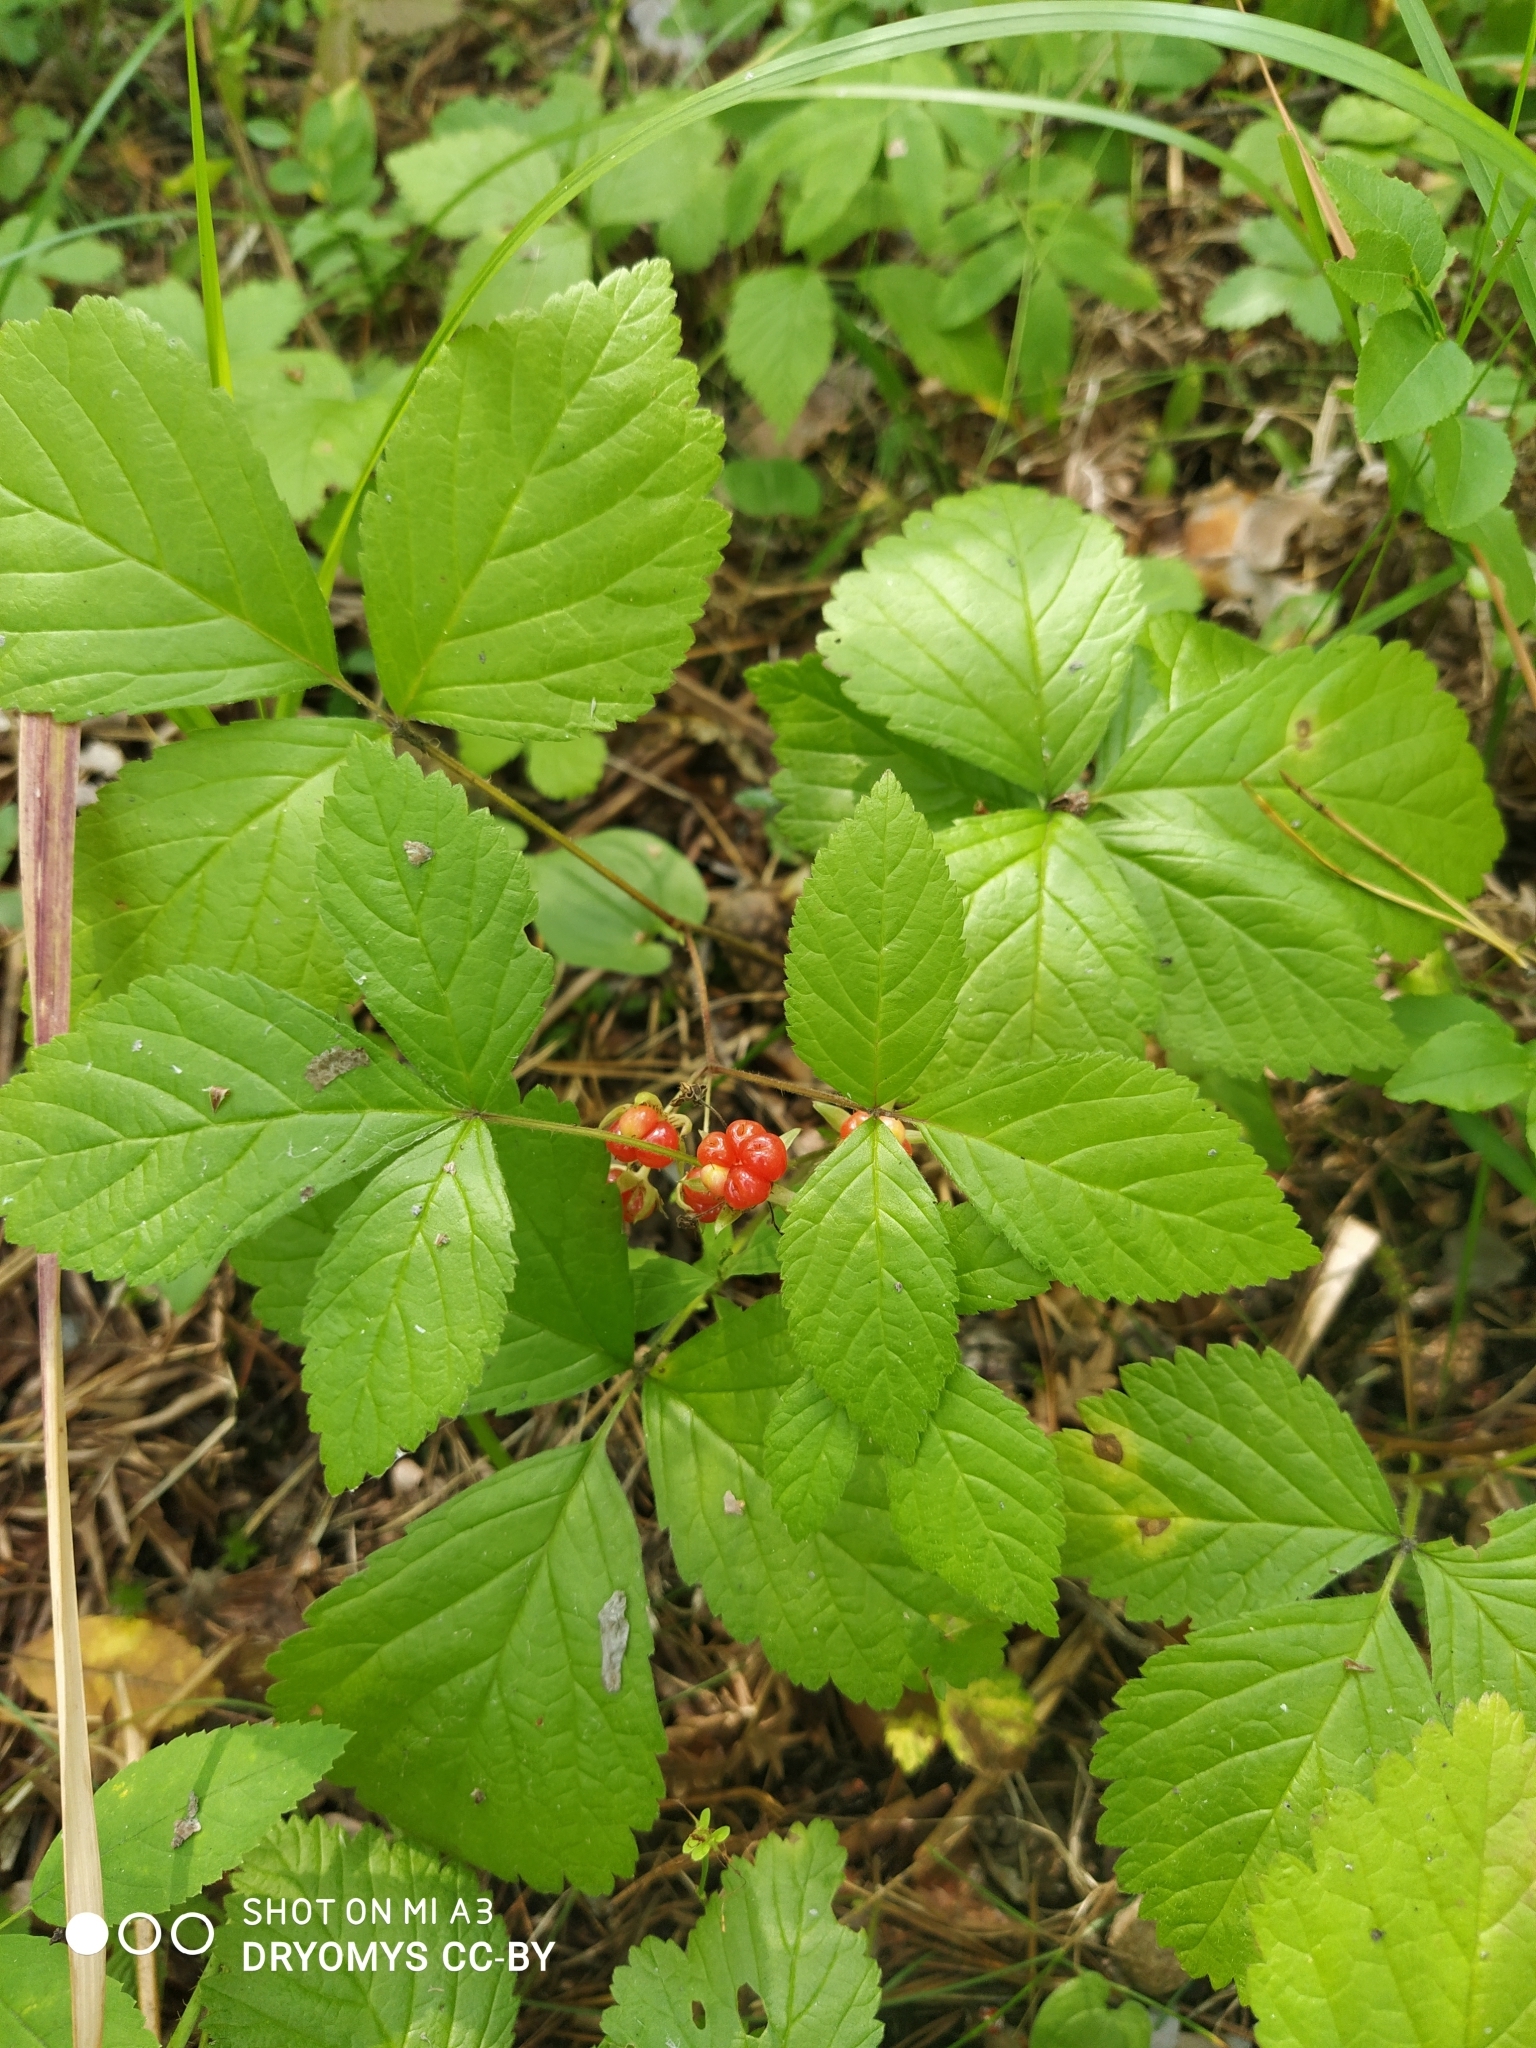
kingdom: Plantae
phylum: Tracheophyta
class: Magnoliopsida
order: Rosales
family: Rosaceae
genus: Rubus
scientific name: Rubus saxatilis
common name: Stone bramble
